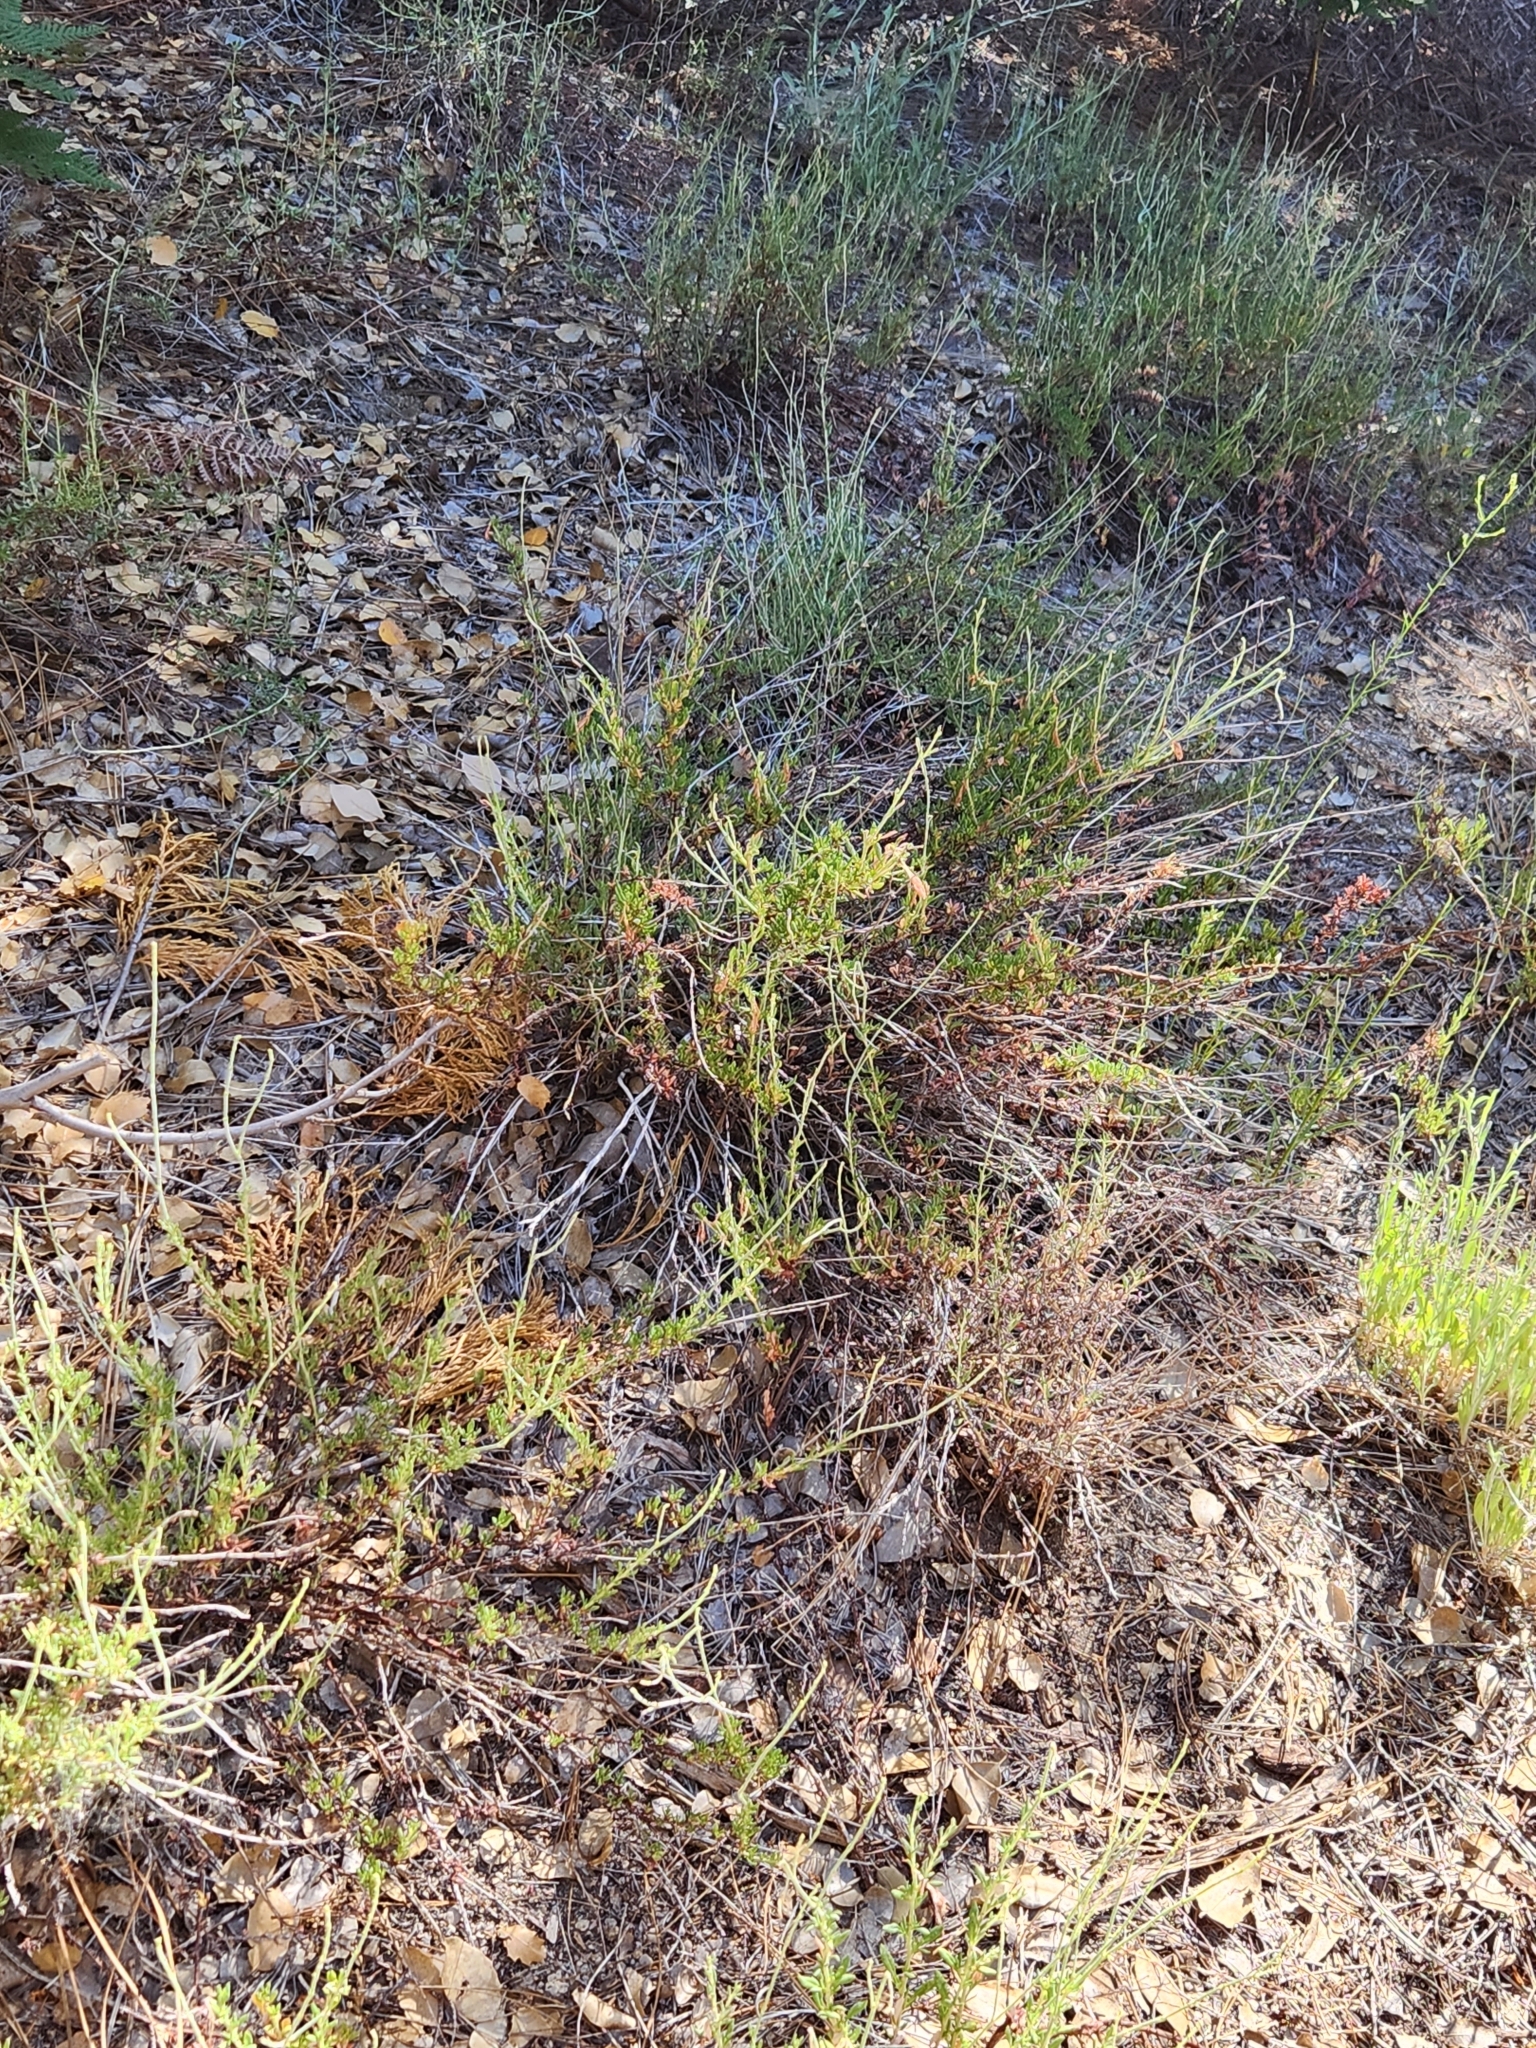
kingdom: Plantae
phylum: Tracheophyta
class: Magnoliopsida
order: Caryophyllales
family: Polygonaceae
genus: Eriogonum
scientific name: Eriogonum wrightii
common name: Bastard-sage
